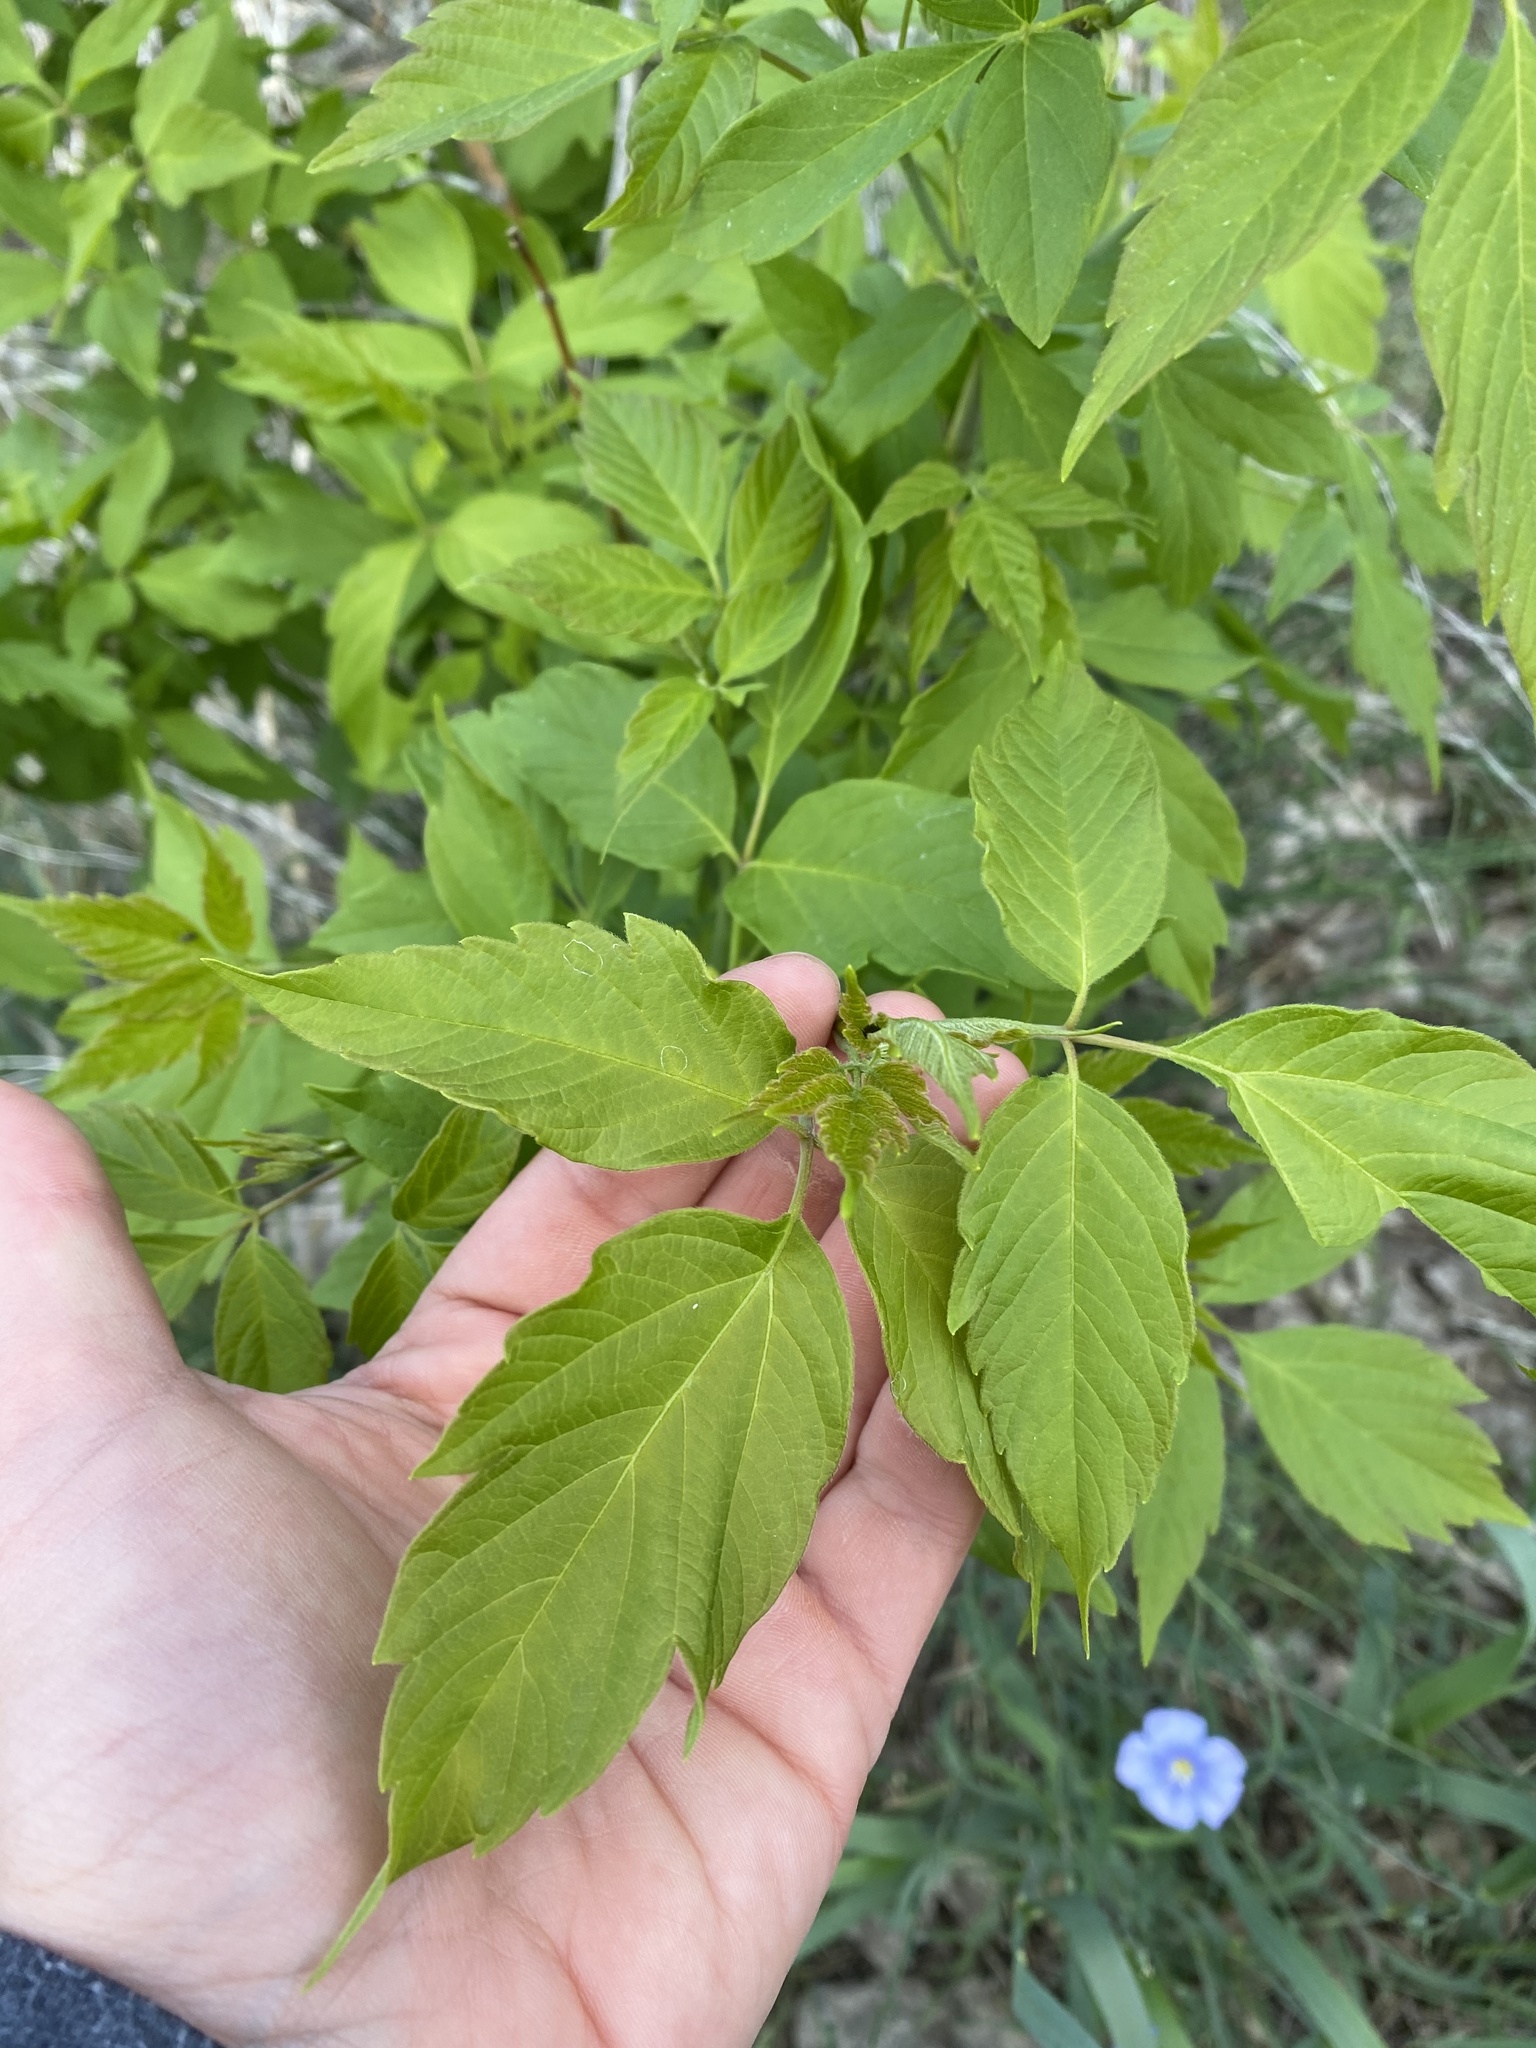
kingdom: Plantae
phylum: Tracheophyta
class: Magnoliopsida
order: Sapindales
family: Sapindaceae
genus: Acer
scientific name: Acer negundo
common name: Ashleaf maple
